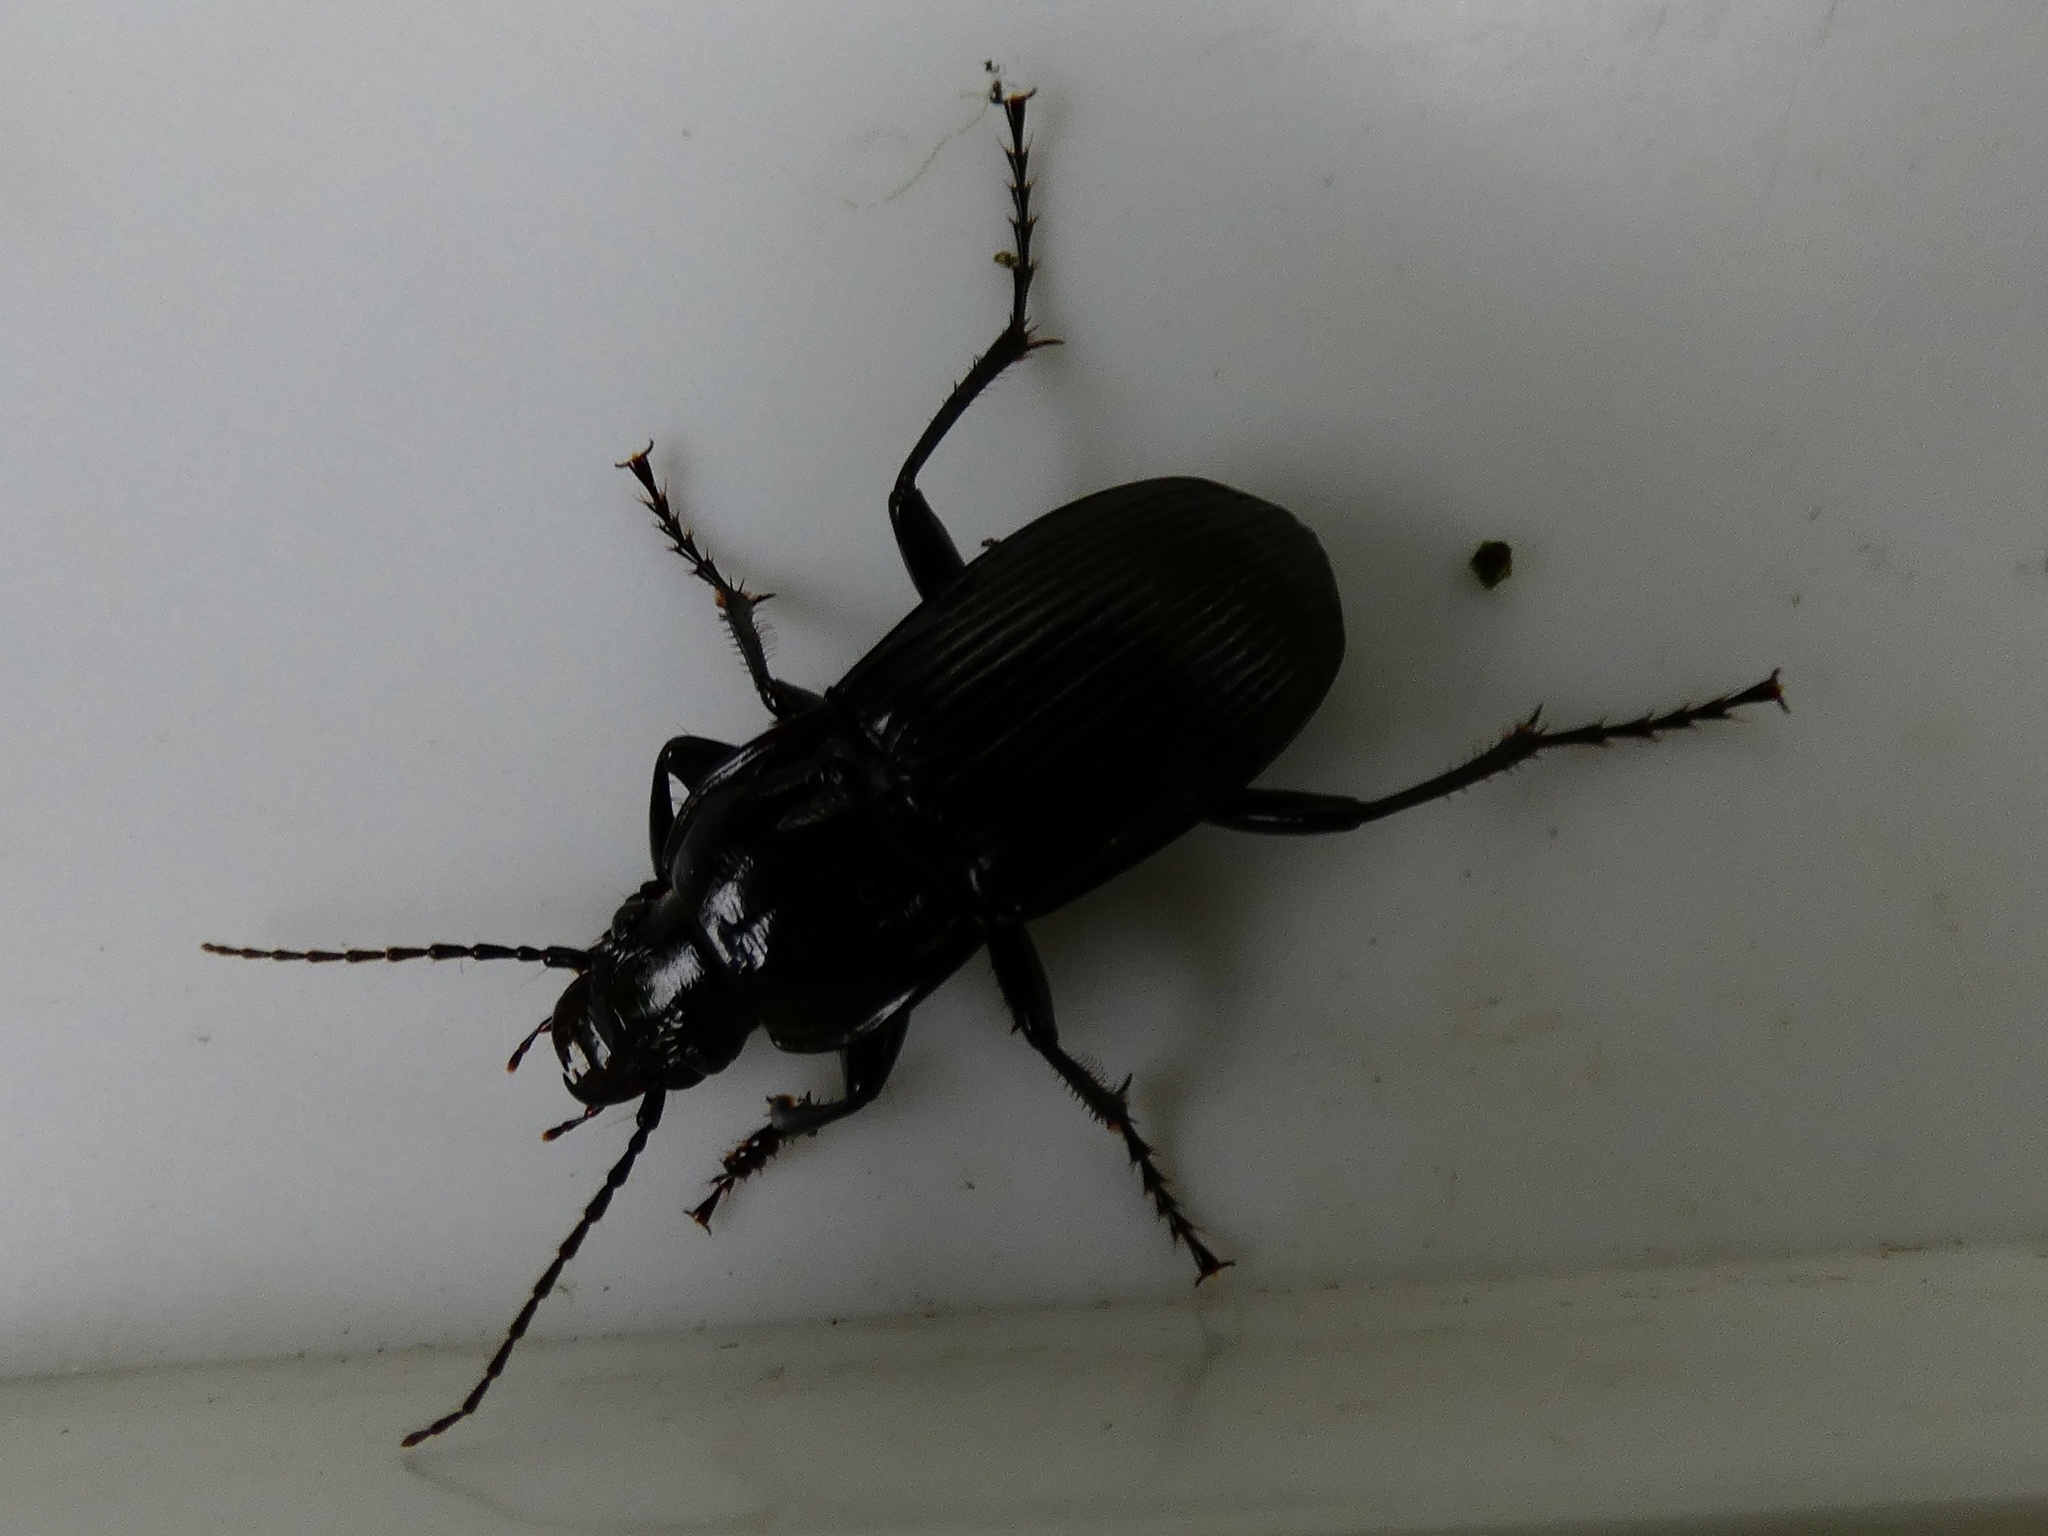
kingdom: Animalia
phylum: Arthropoda
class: Insecta
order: Coleoptera
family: Carabidae
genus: Abax
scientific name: Abax parallelepipedus
